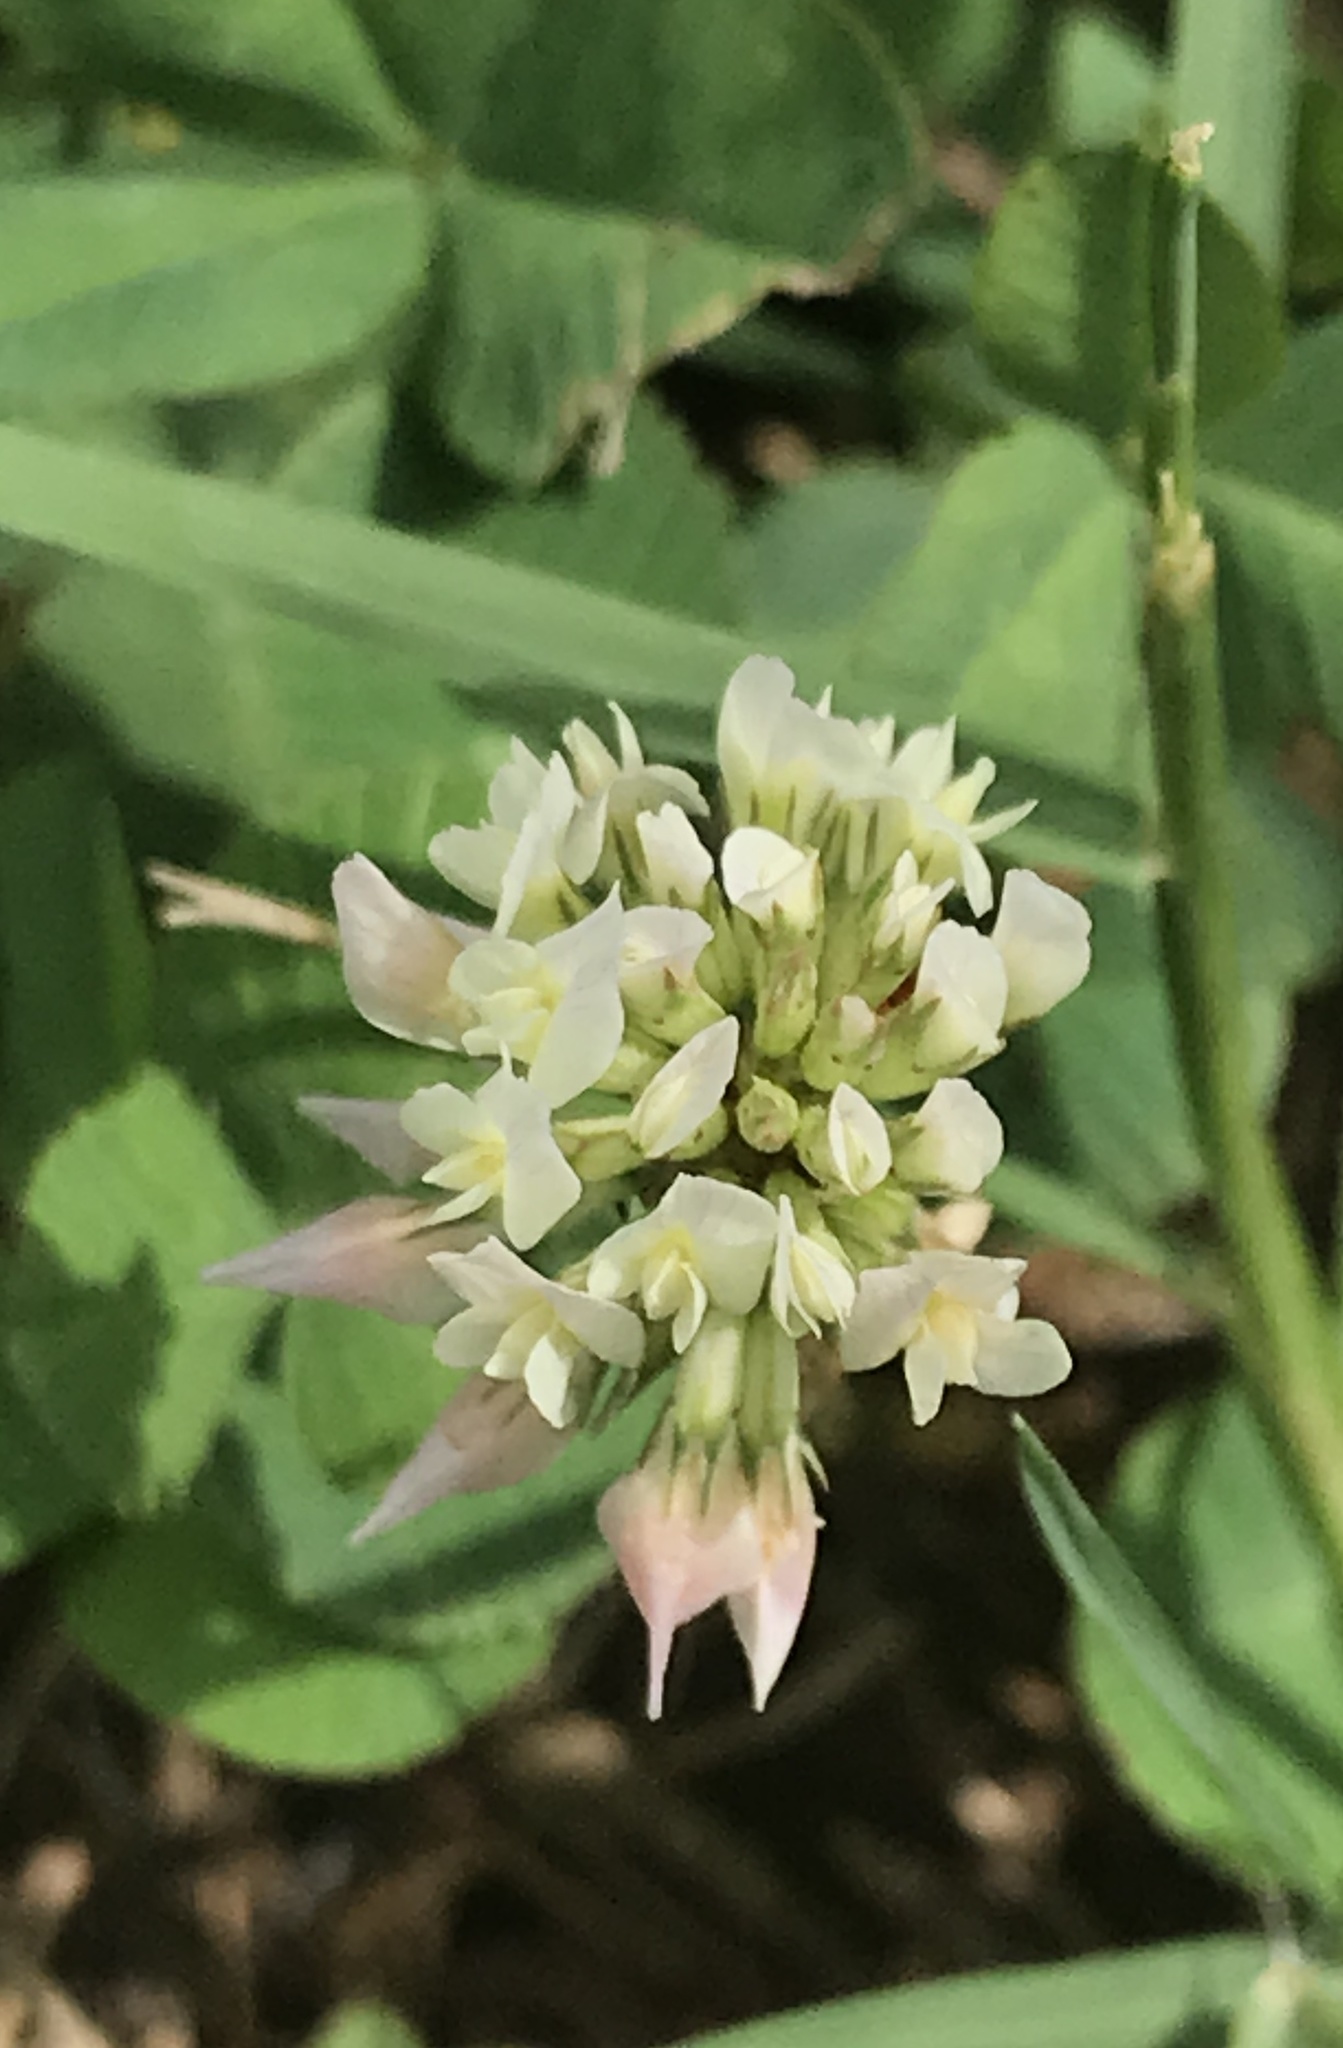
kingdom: Plantae
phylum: Tracheophyta
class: Magnoliopsida
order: Fabales
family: Fabaceae
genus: Trifolium
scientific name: Trifolium repens
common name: White clover
